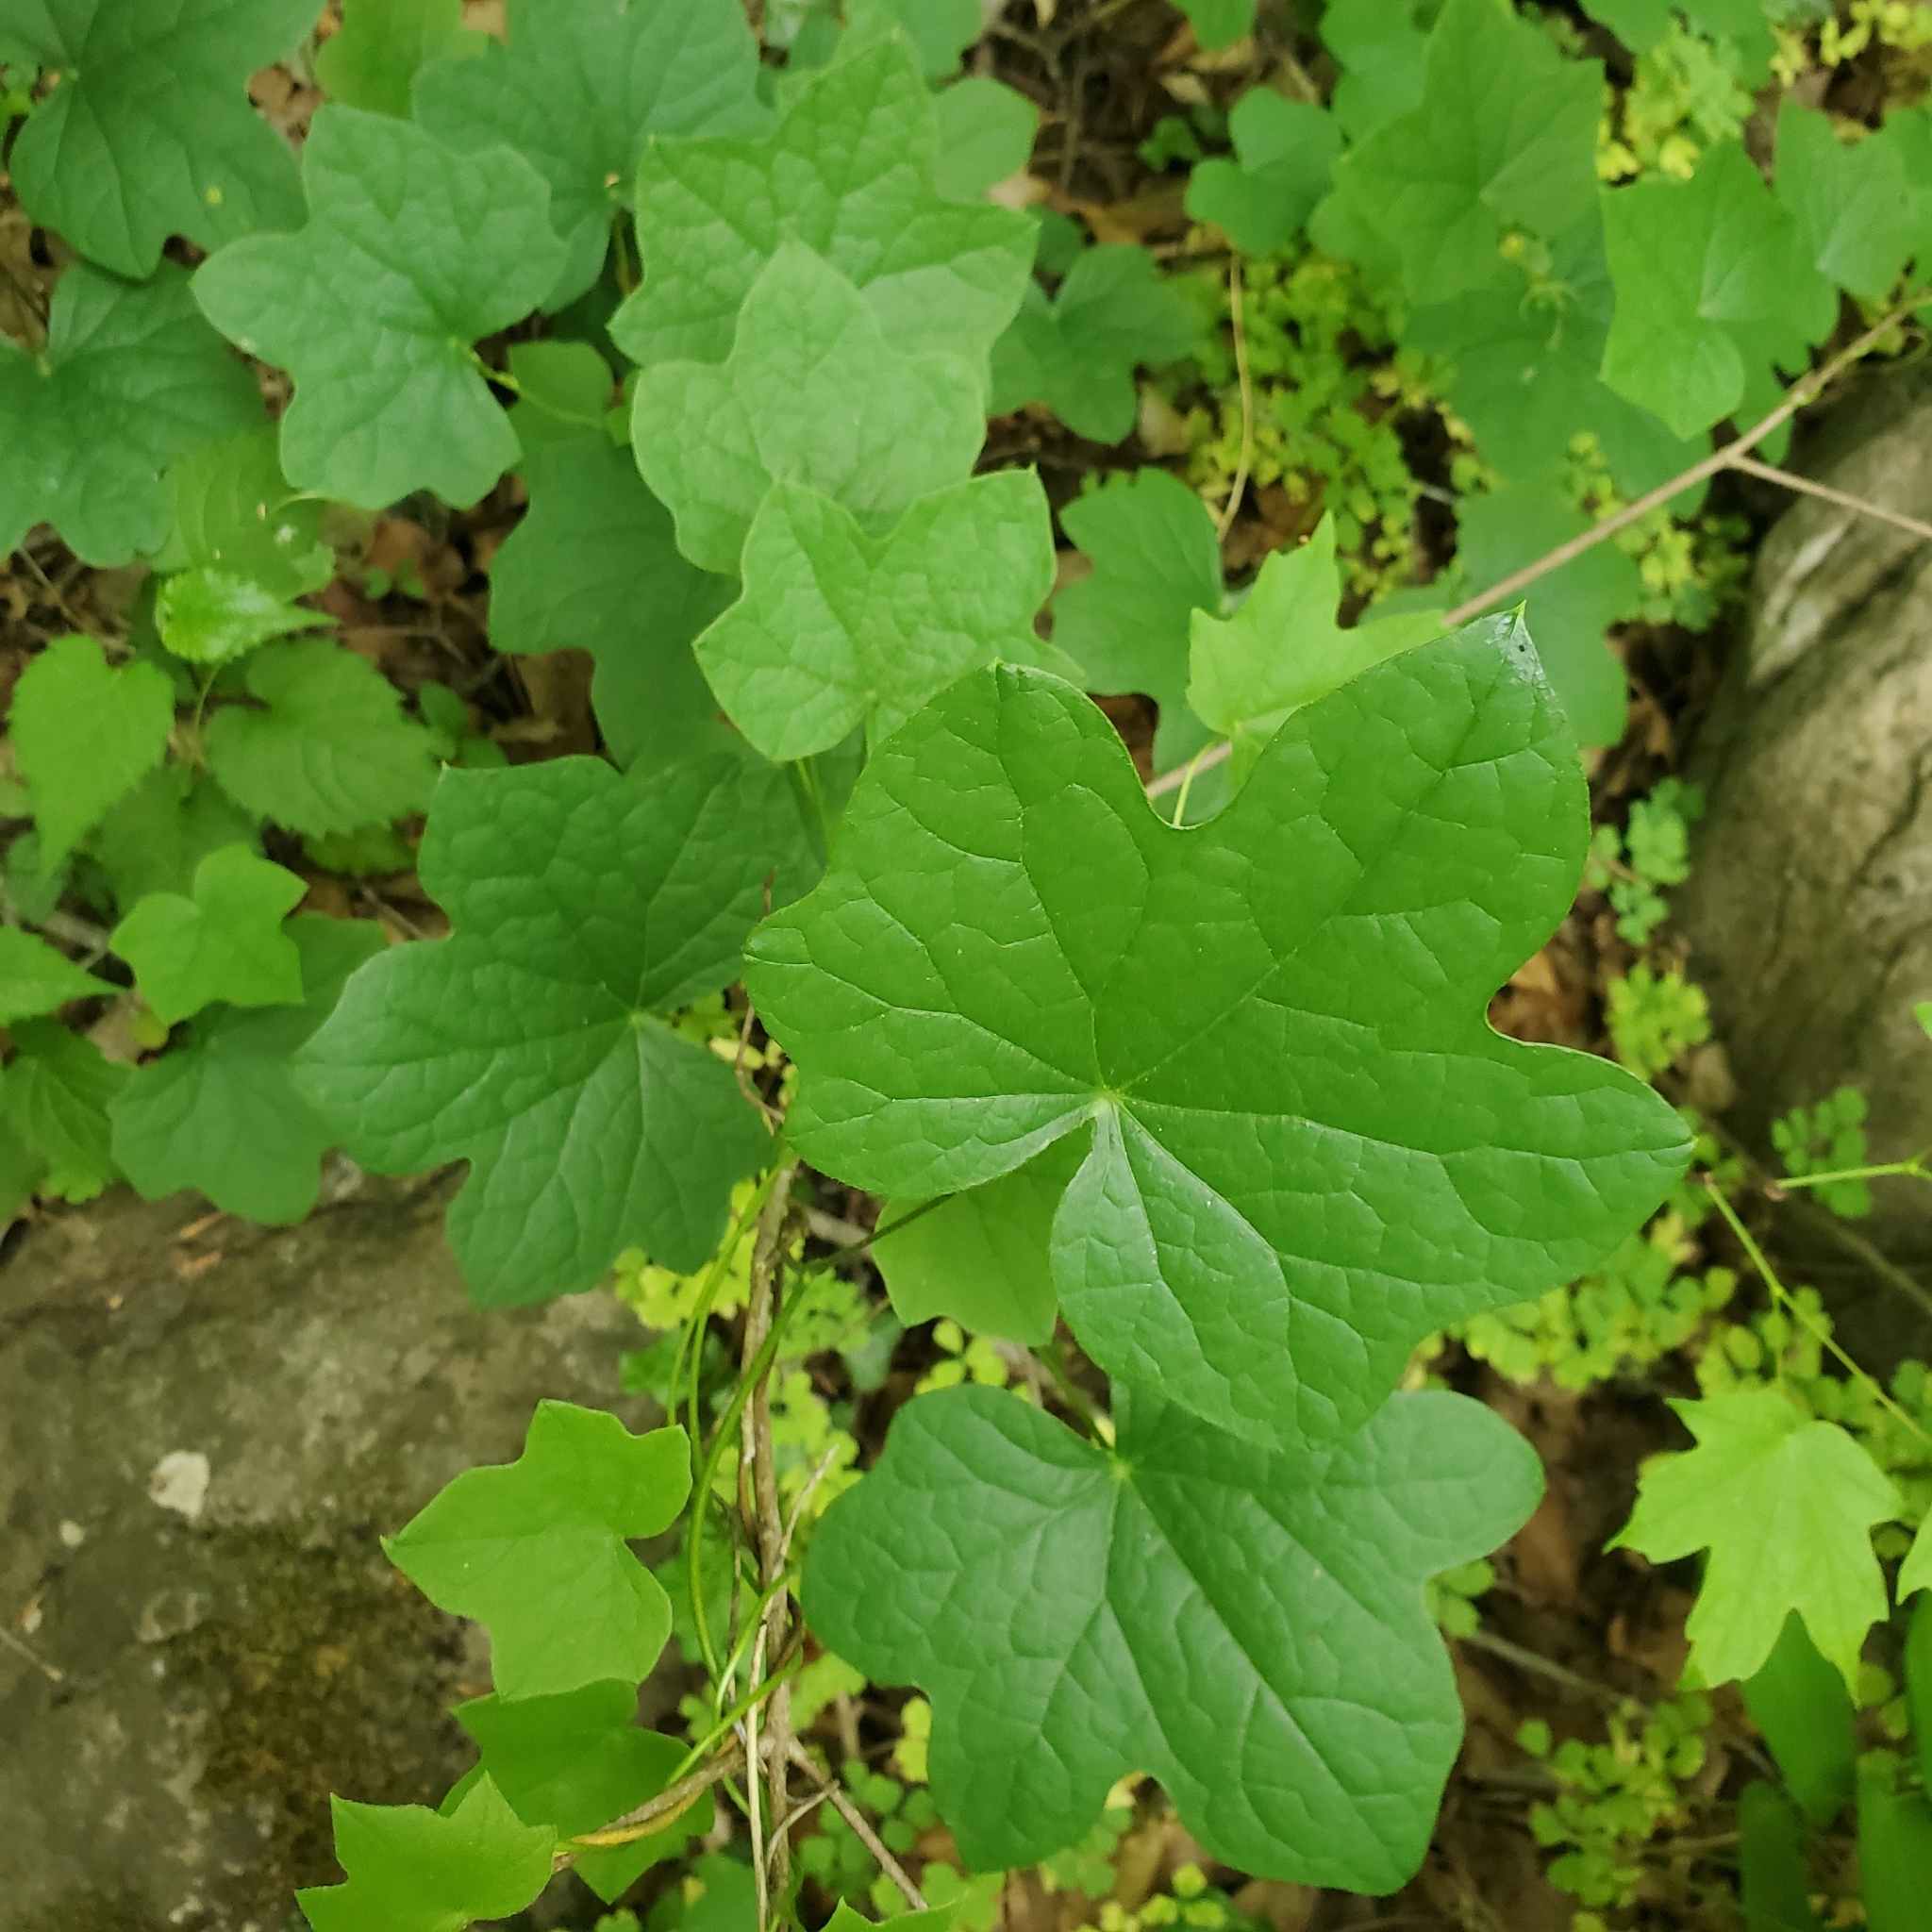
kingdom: Plantae
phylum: Tracheophyta
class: Magnoliopsida
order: Ranunculales
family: Menispermaceae
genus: Menispermum
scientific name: Menispermum canadense
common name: Moonseed
